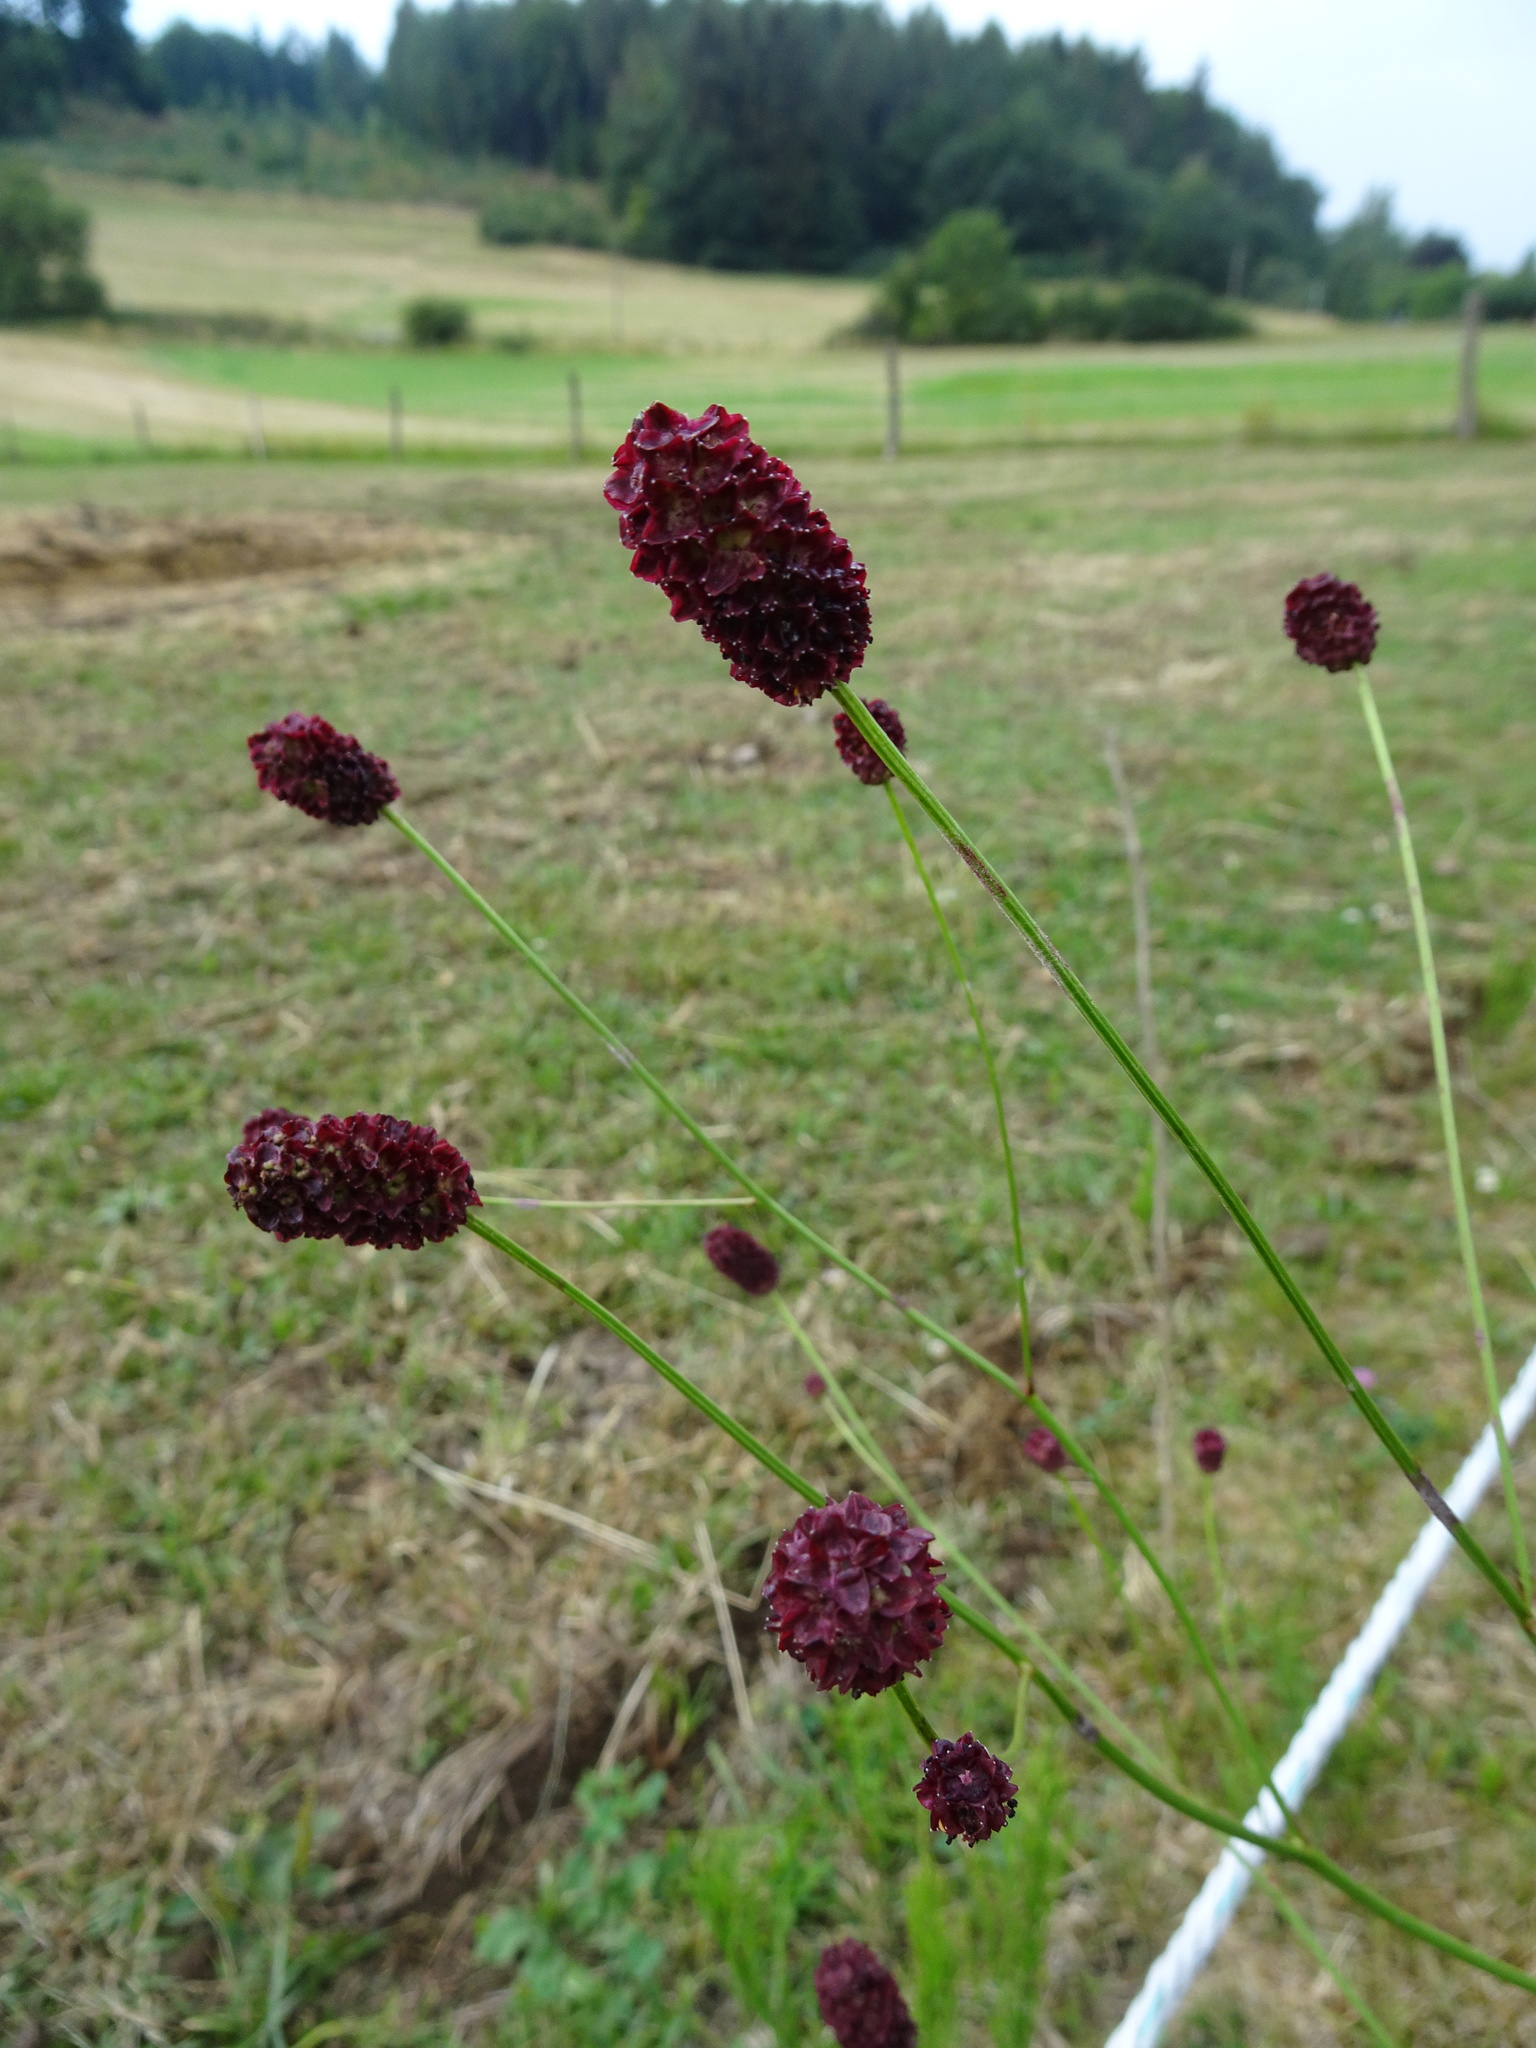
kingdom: Plantae
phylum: Tracheophyta
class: Magnoliopsida
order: Rosales
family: Rosaceae
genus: Sanguisorba
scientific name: Sanguisorba officinalis
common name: Great burnet
